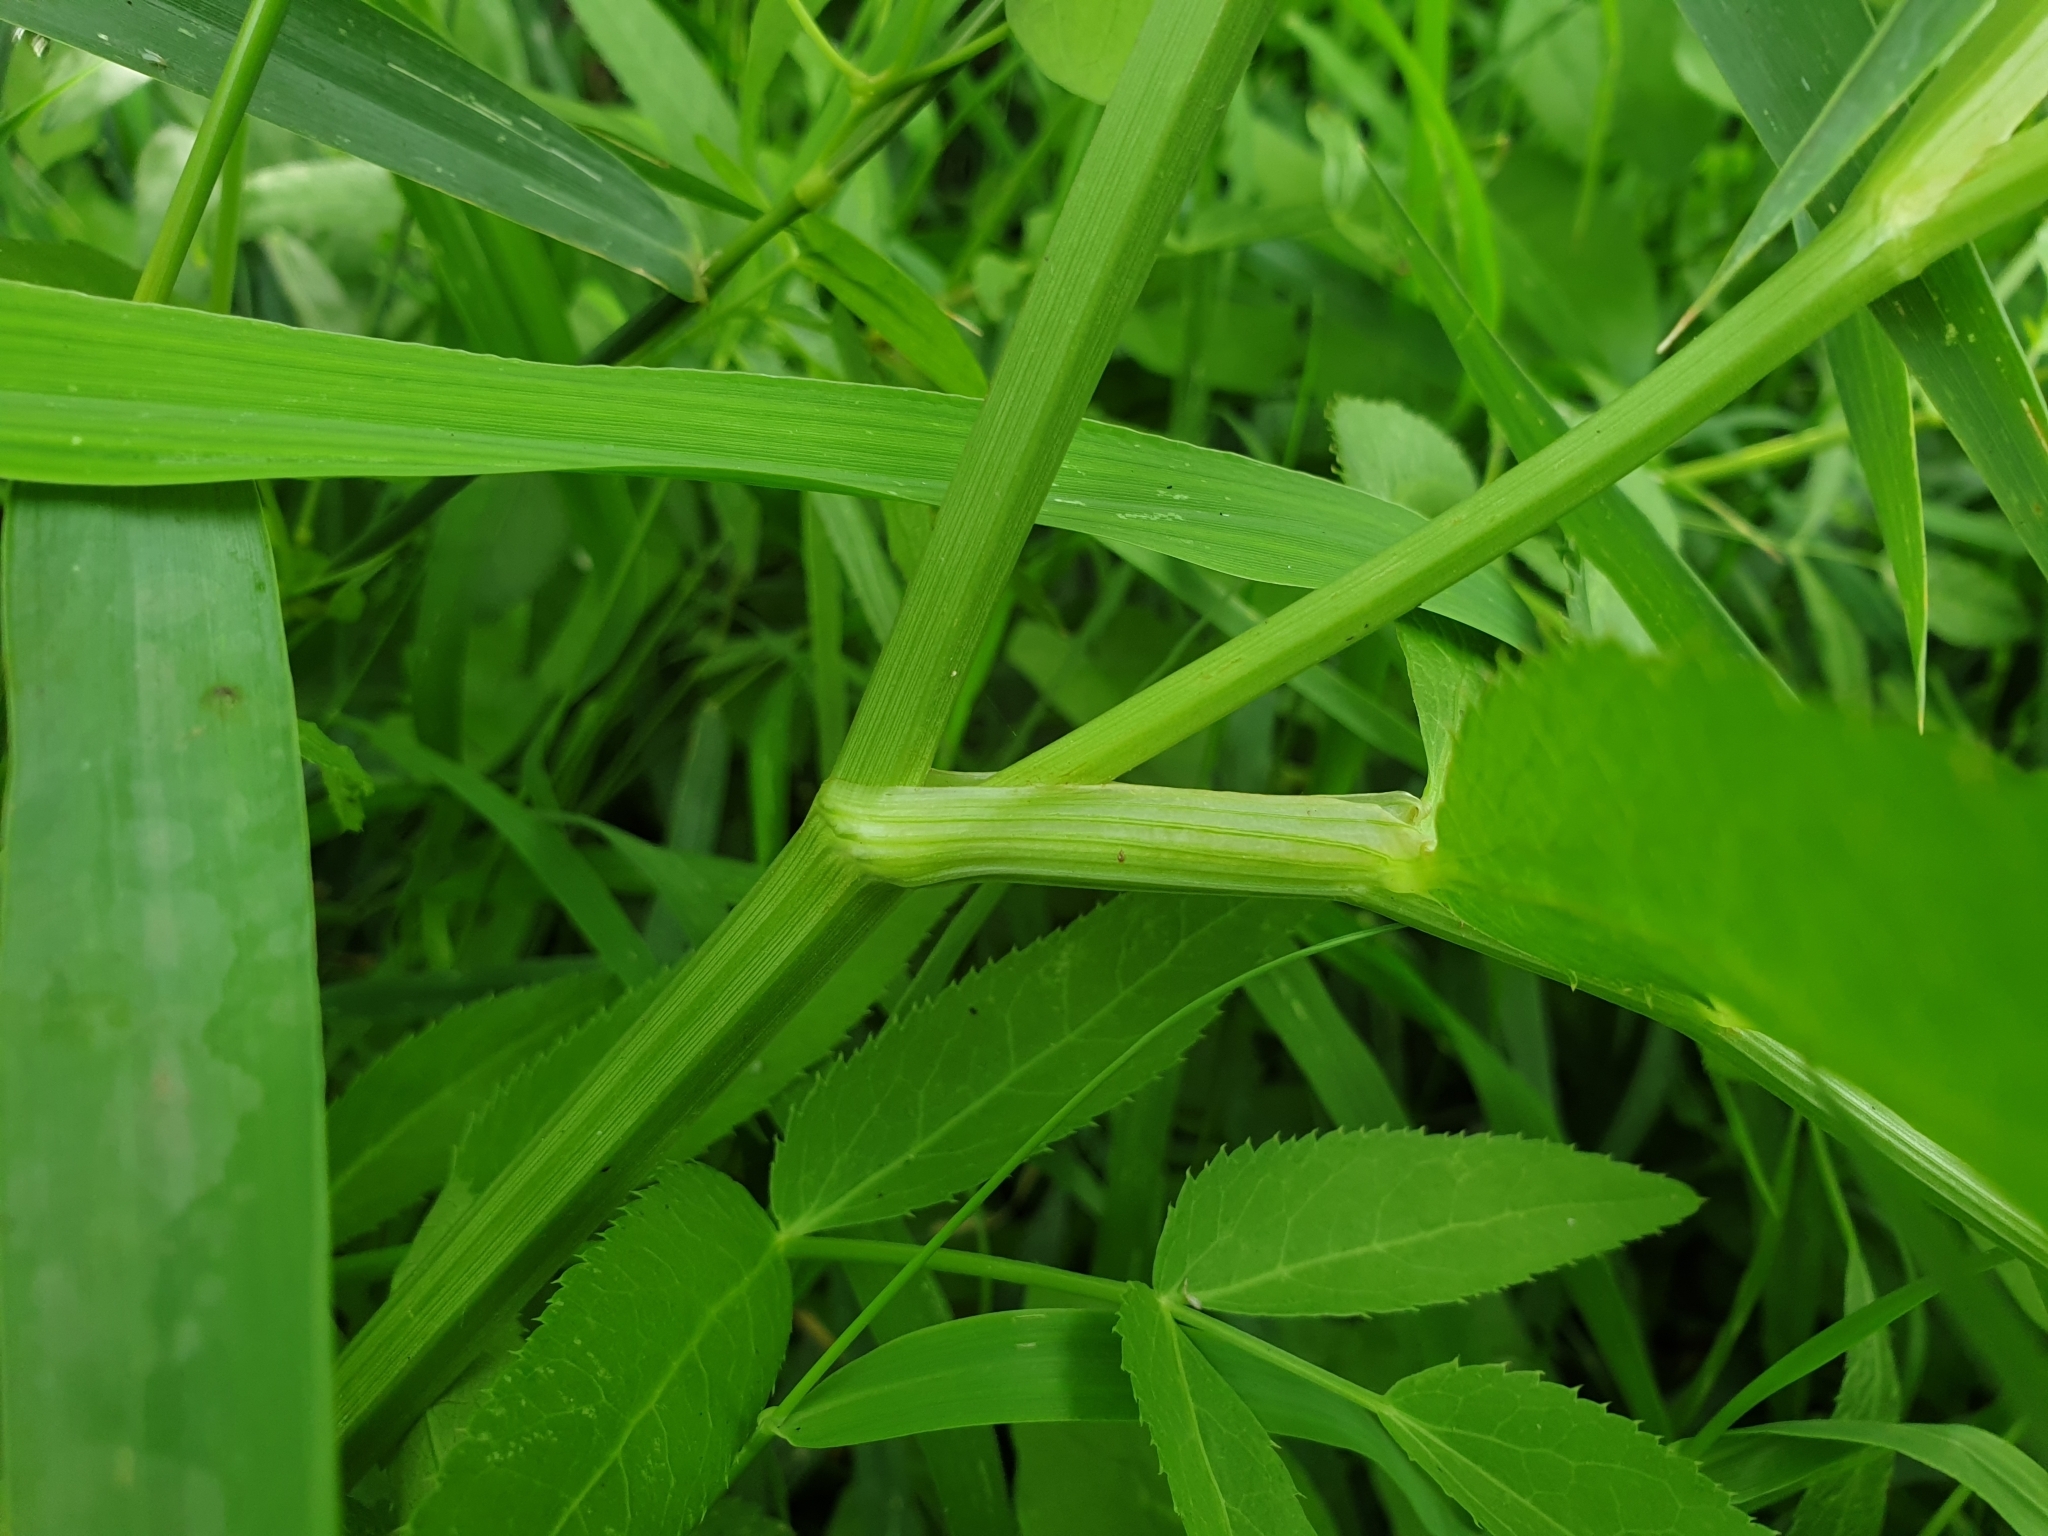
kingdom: Plantae
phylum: Tracheophyta
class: Magnoliopsida
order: Apiales
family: Apiaceae
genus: Sium
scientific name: Sium latifolium
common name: Greater water-parsnip
